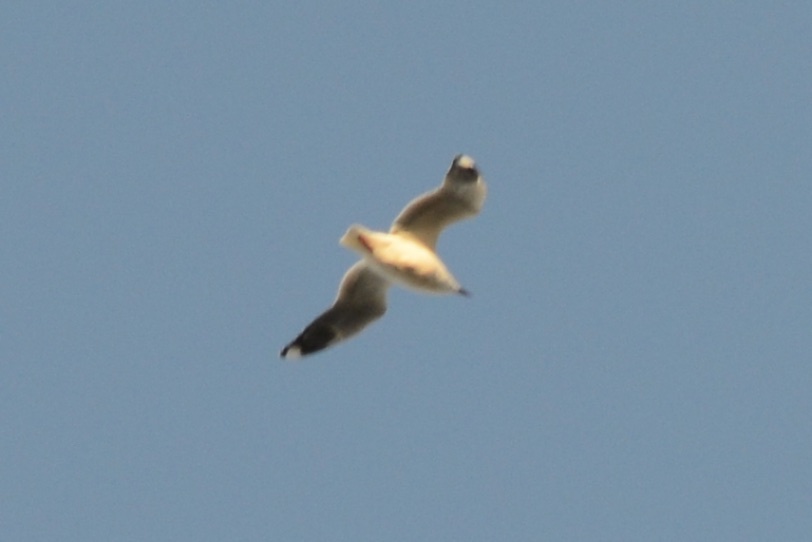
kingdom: Animalia
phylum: Chordata
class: Aves
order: Charadriiformes
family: Laridae
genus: Chroicocephalus
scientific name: Chroicocephalus novaehollandiae
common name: Silver gull
